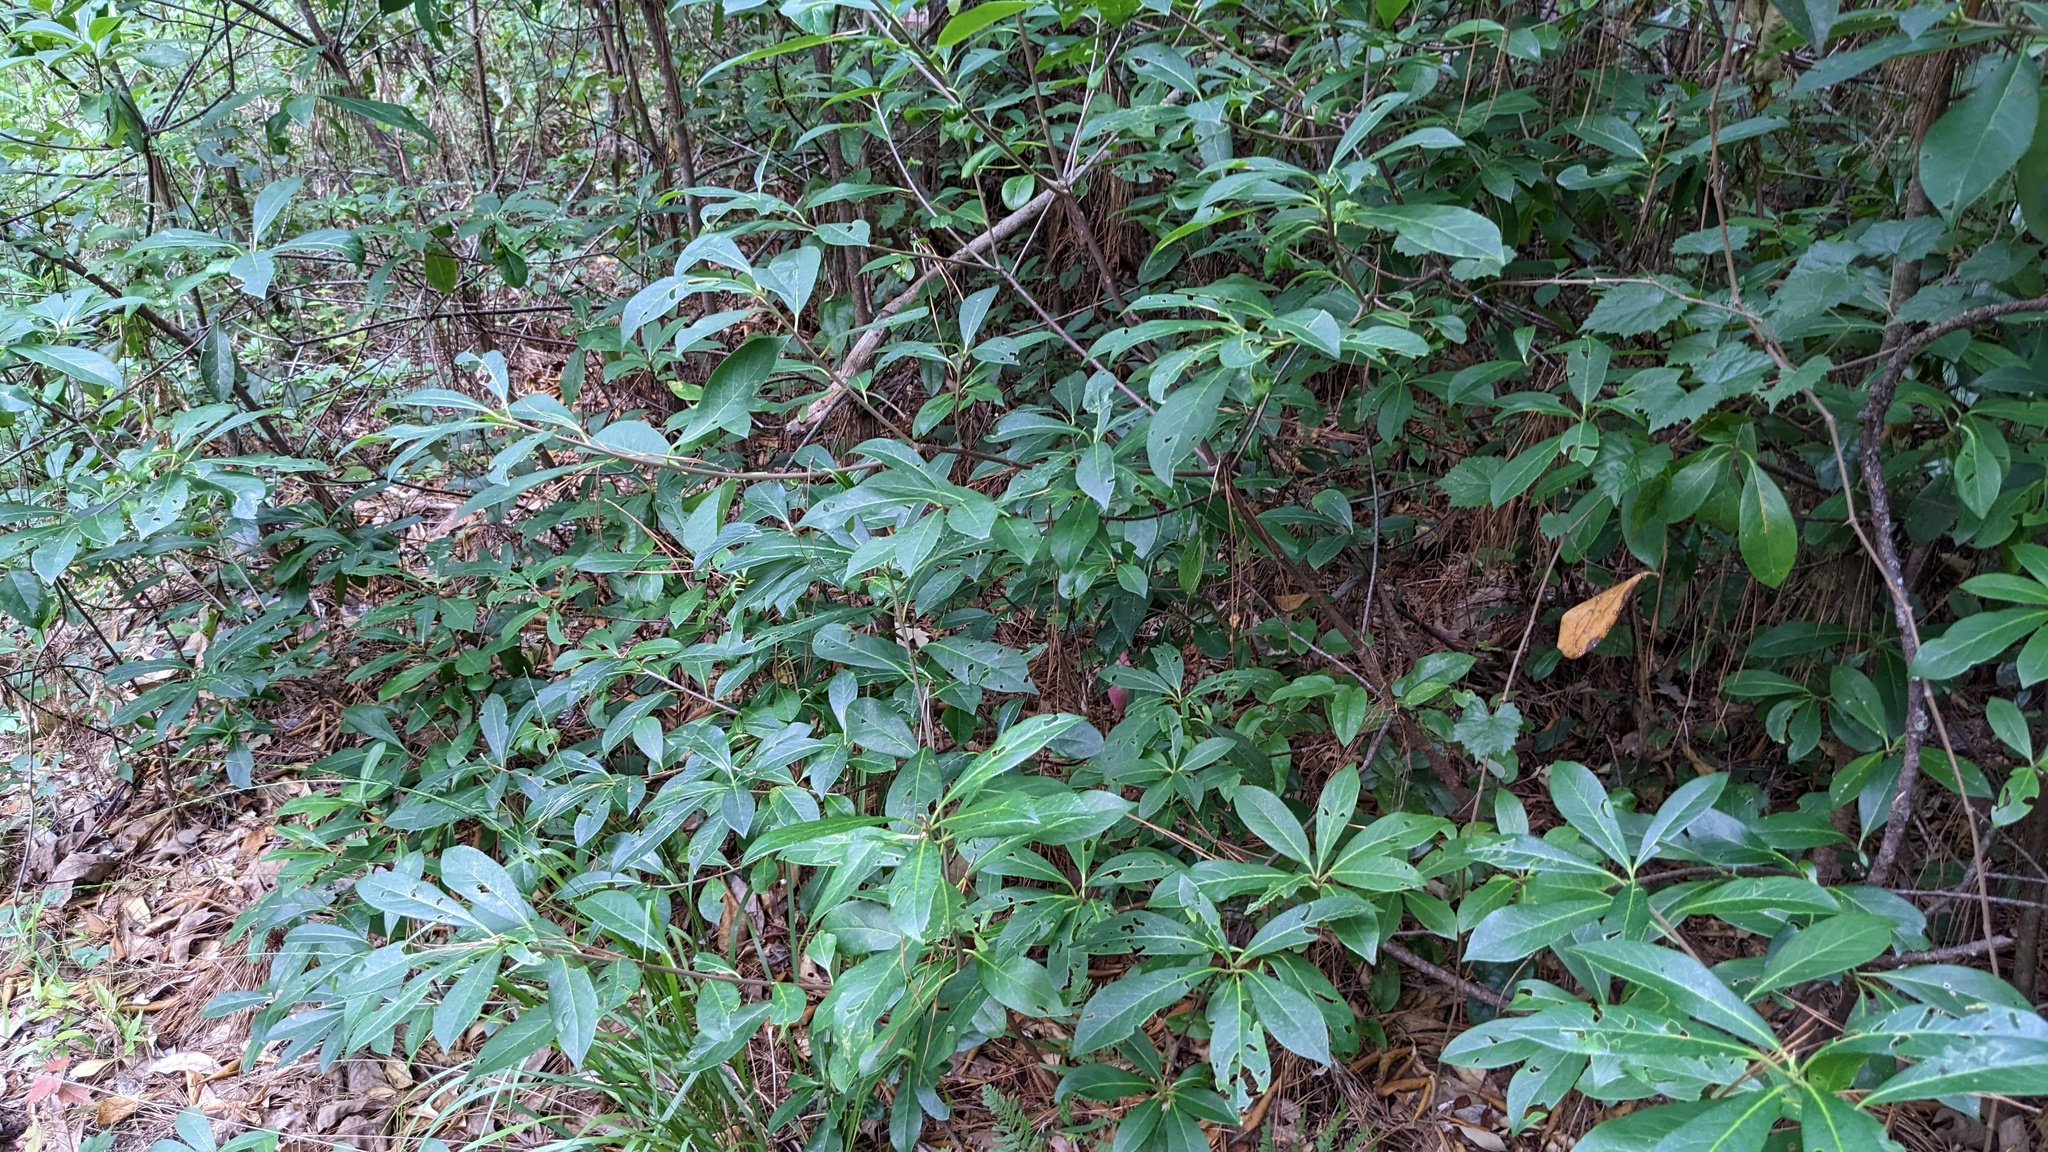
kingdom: Plantae
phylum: Tracheophyta
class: Magnoliopsida
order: Ericales
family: Symplocaceae
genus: Symplocos
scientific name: Symplocos tinctoria
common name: Horse-sugar
